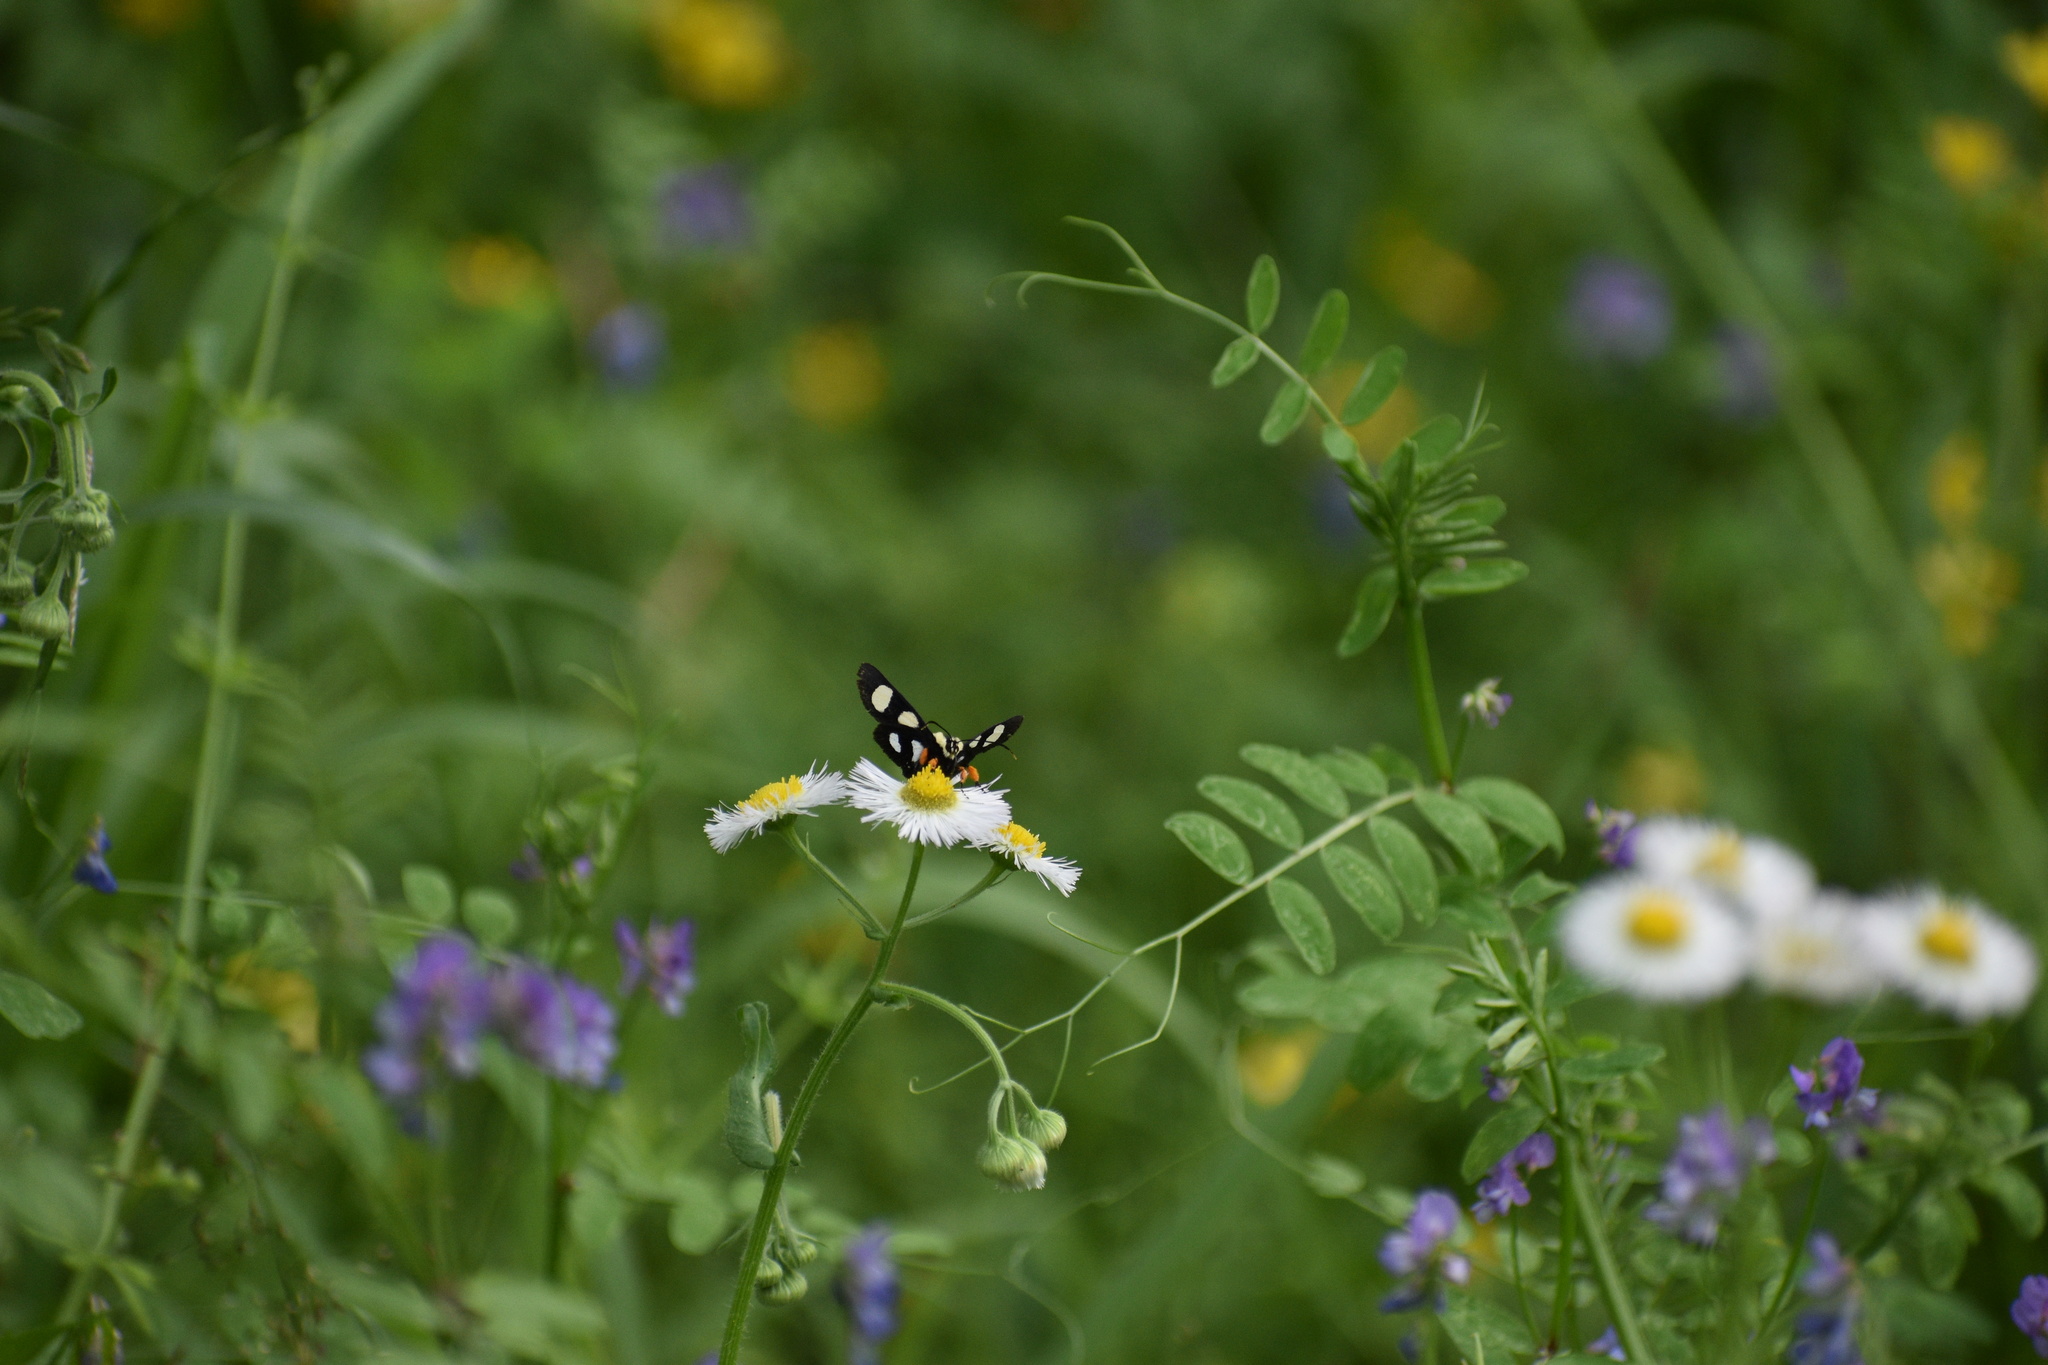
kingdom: Animalia
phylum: Arthropoda
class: Insecta
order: Lepidoptera
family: Noctuidae
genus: Alypia
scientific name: Alypia octomaculata
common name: Eight-spotted forester
